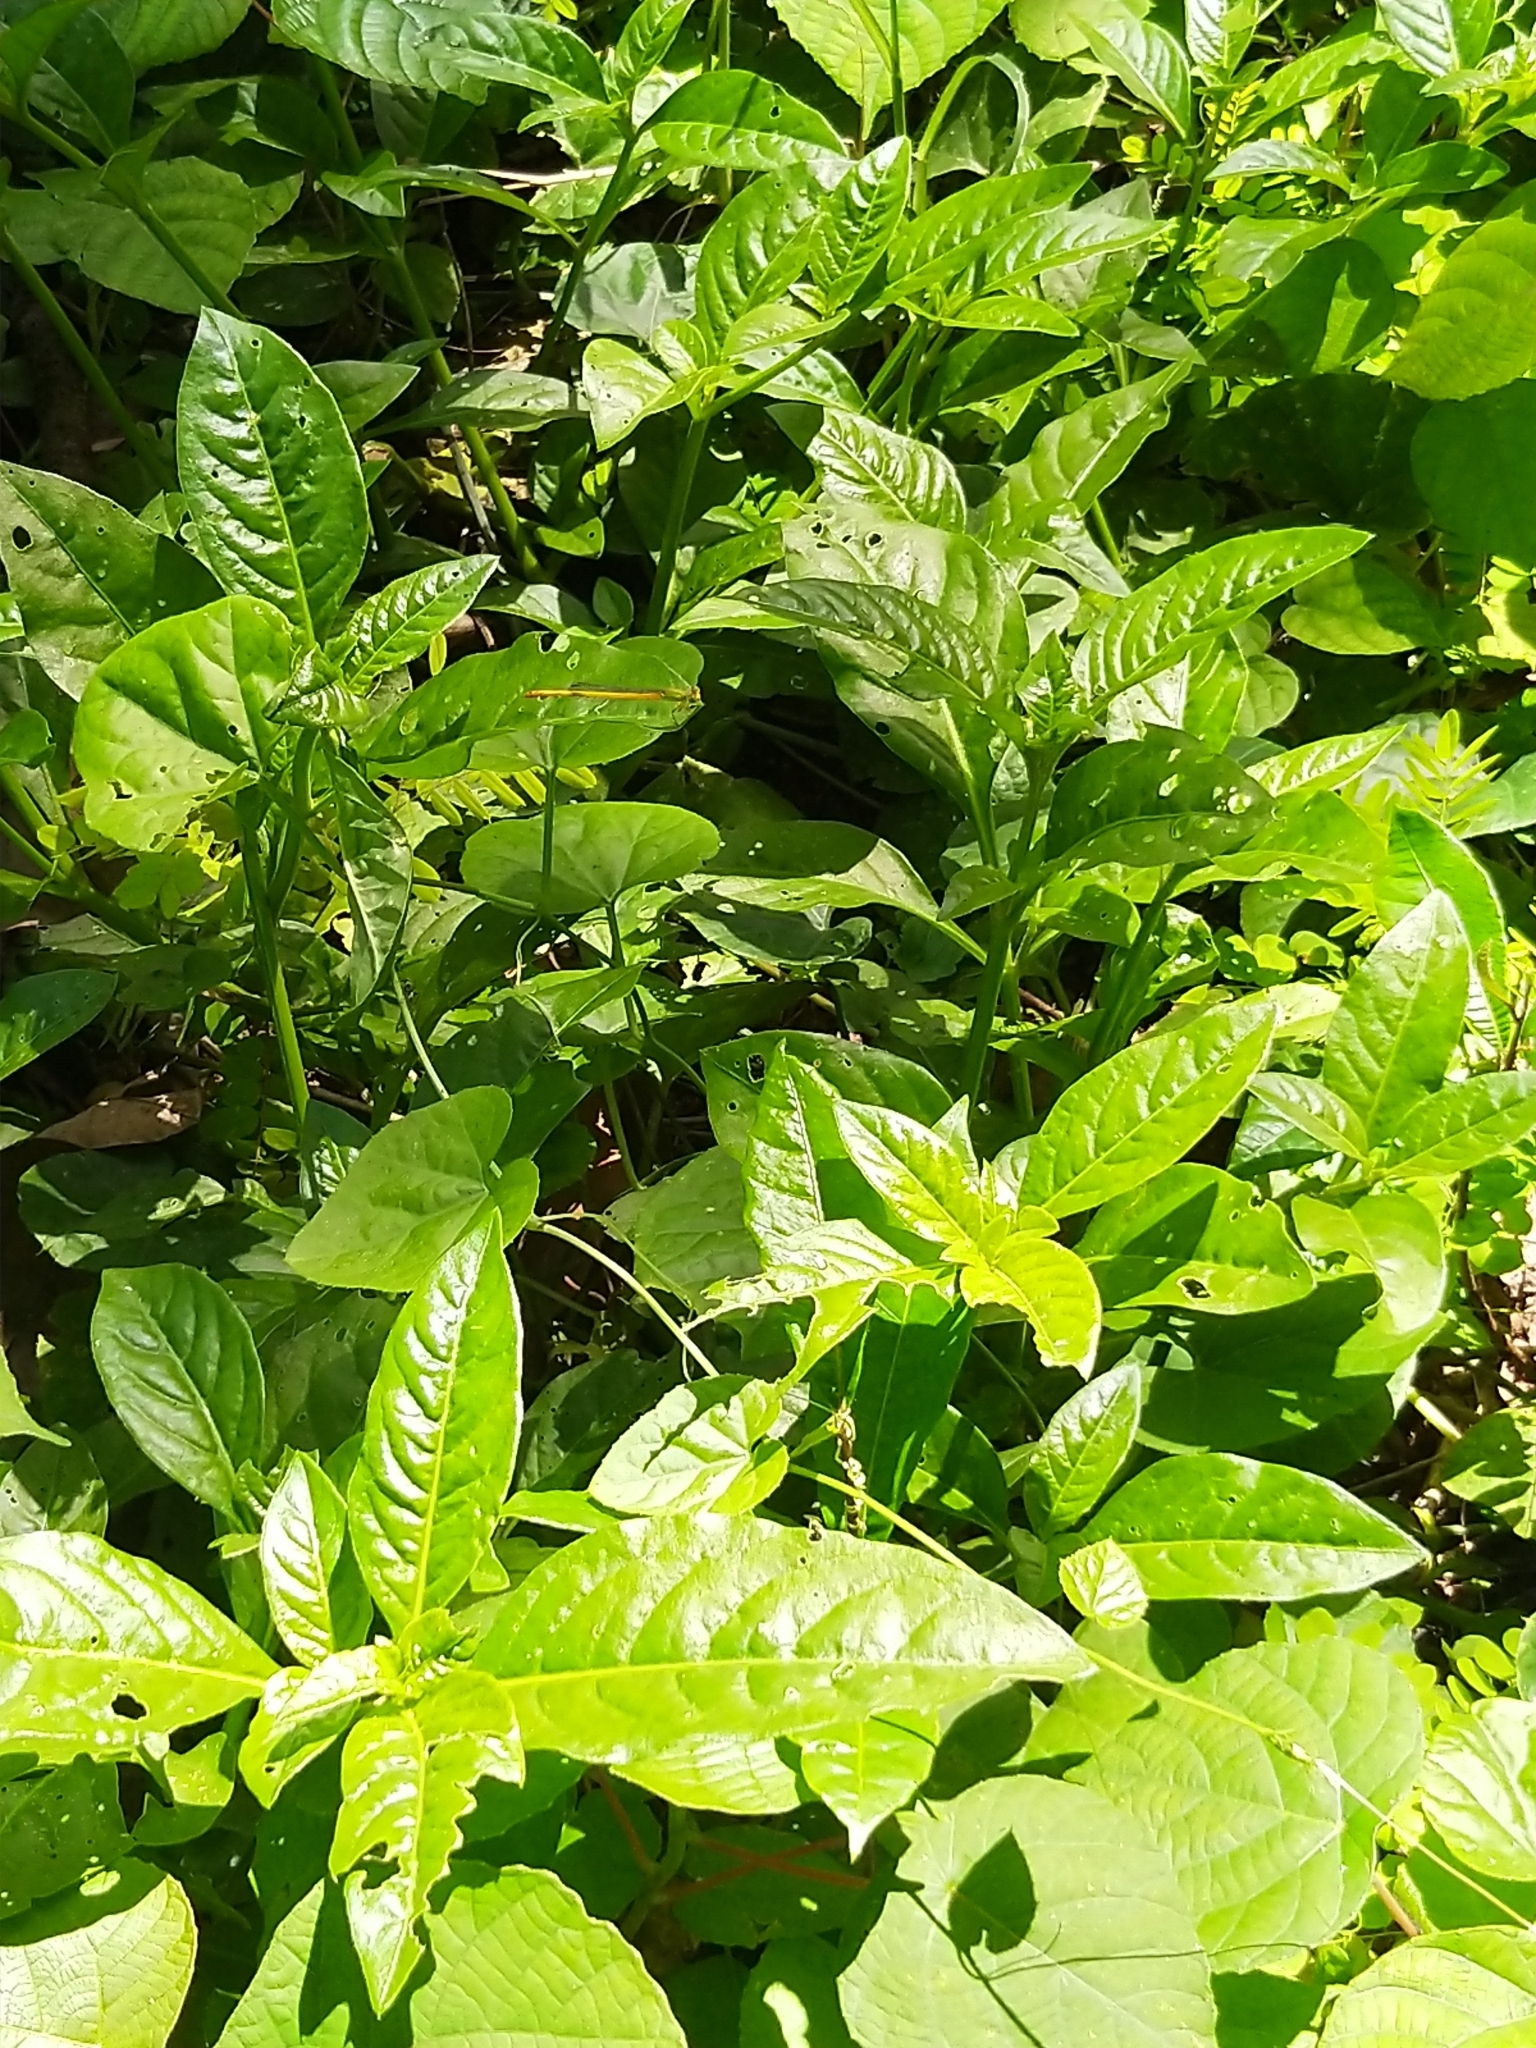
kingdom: Animalia
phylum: Arthropoda
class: Insecta
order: Odonata
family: Coenagrionidae
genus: Ceriagrion
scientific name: Ceriagrion coromandelianum
